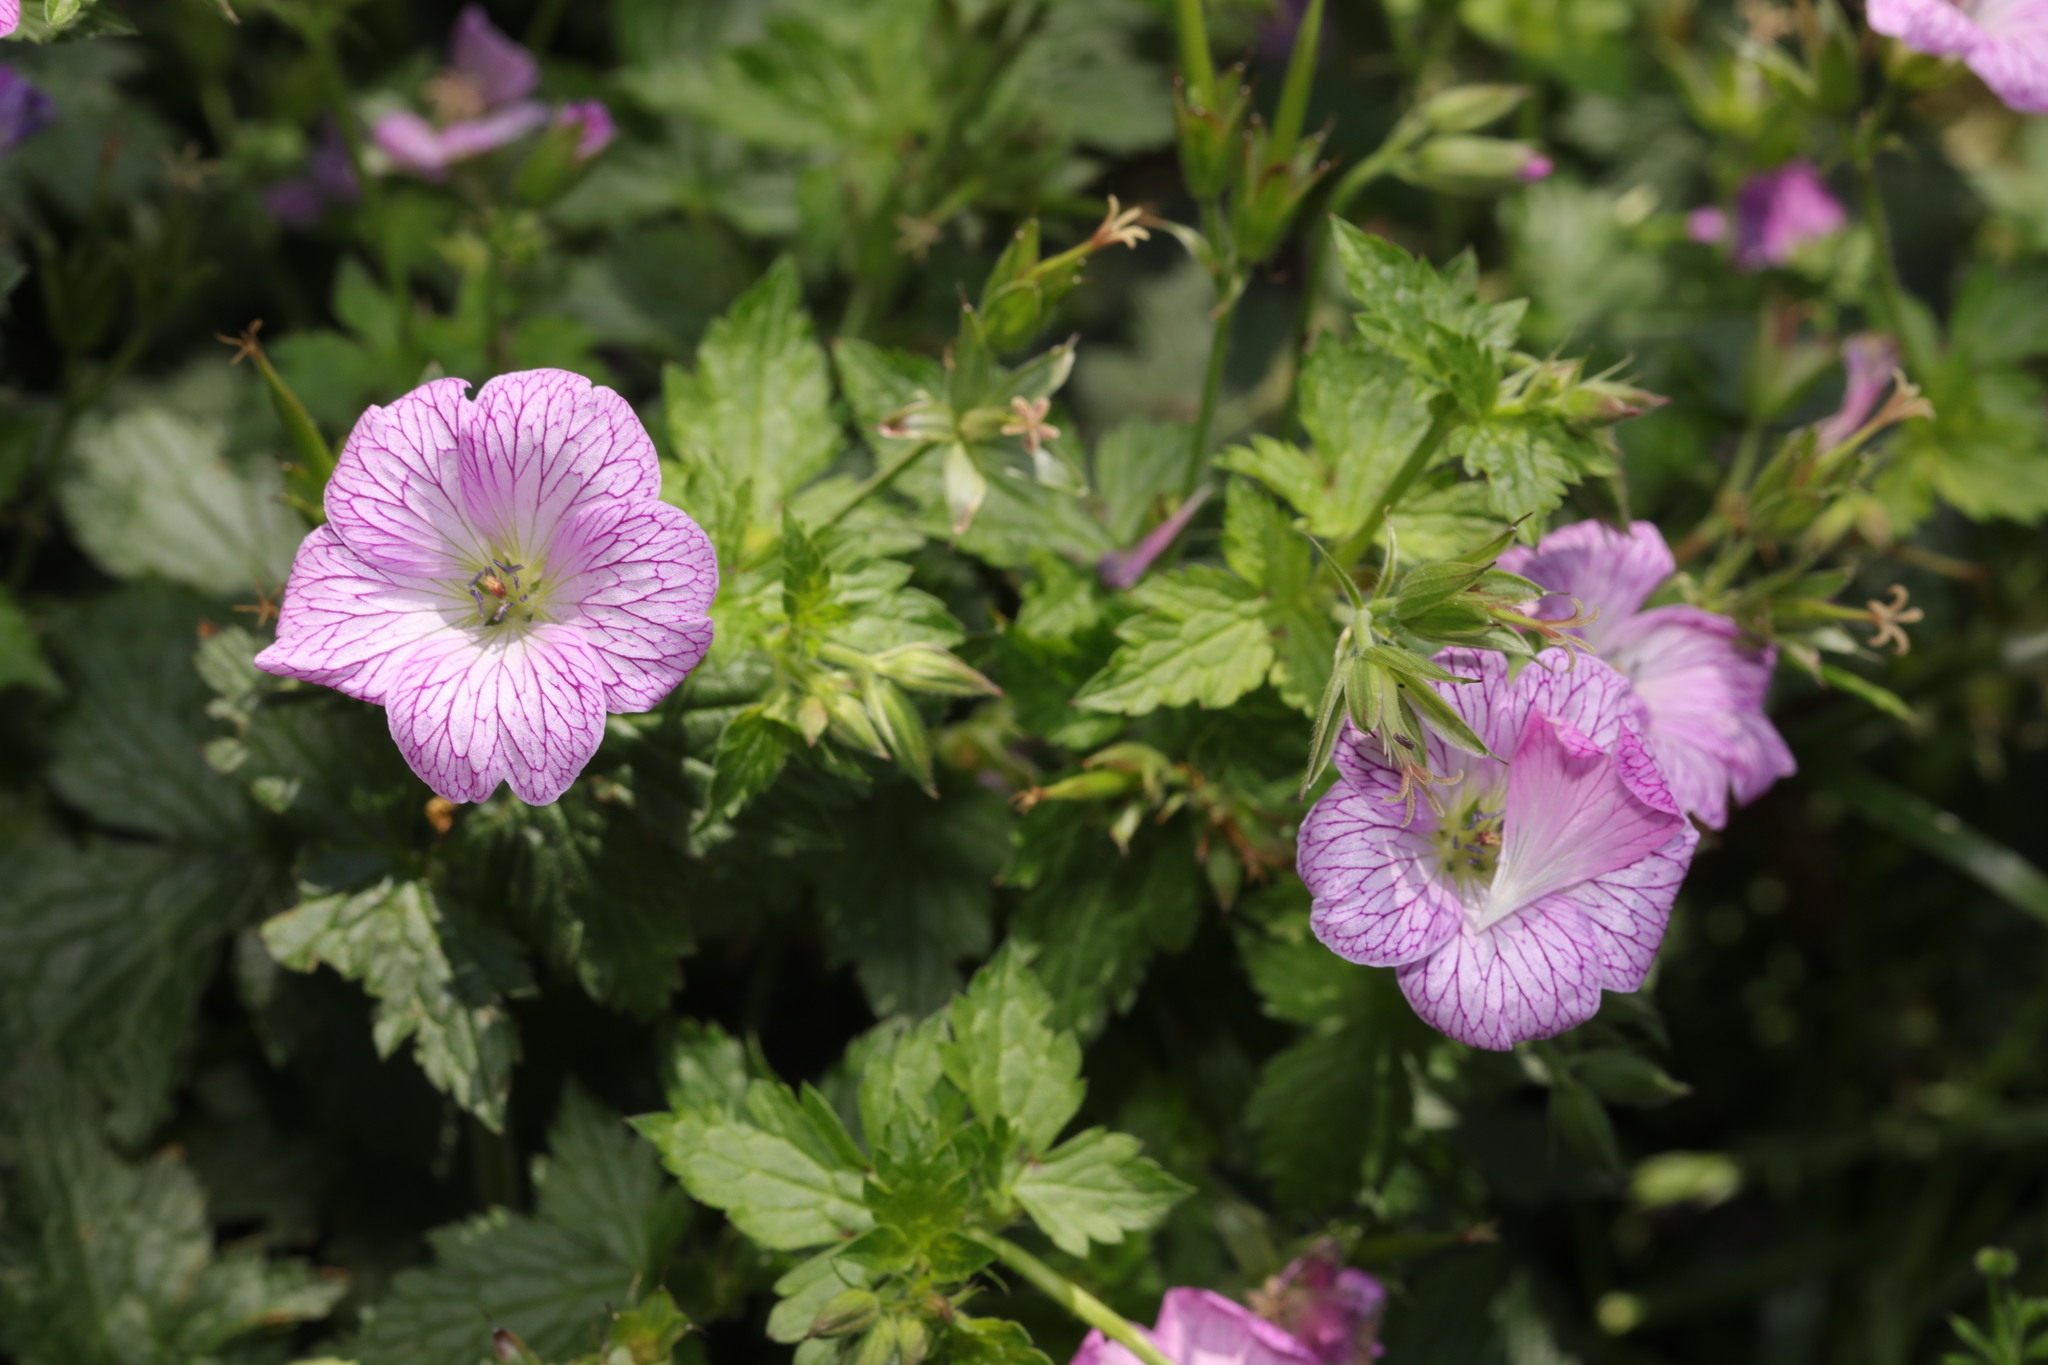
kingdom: Plantae
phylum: Tracheophyta
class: Magnoliopsida
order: Geraniales
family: Geraniaceae
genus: Geranium
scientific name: Geranium oxonianum
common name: Druce's crane's-bill
